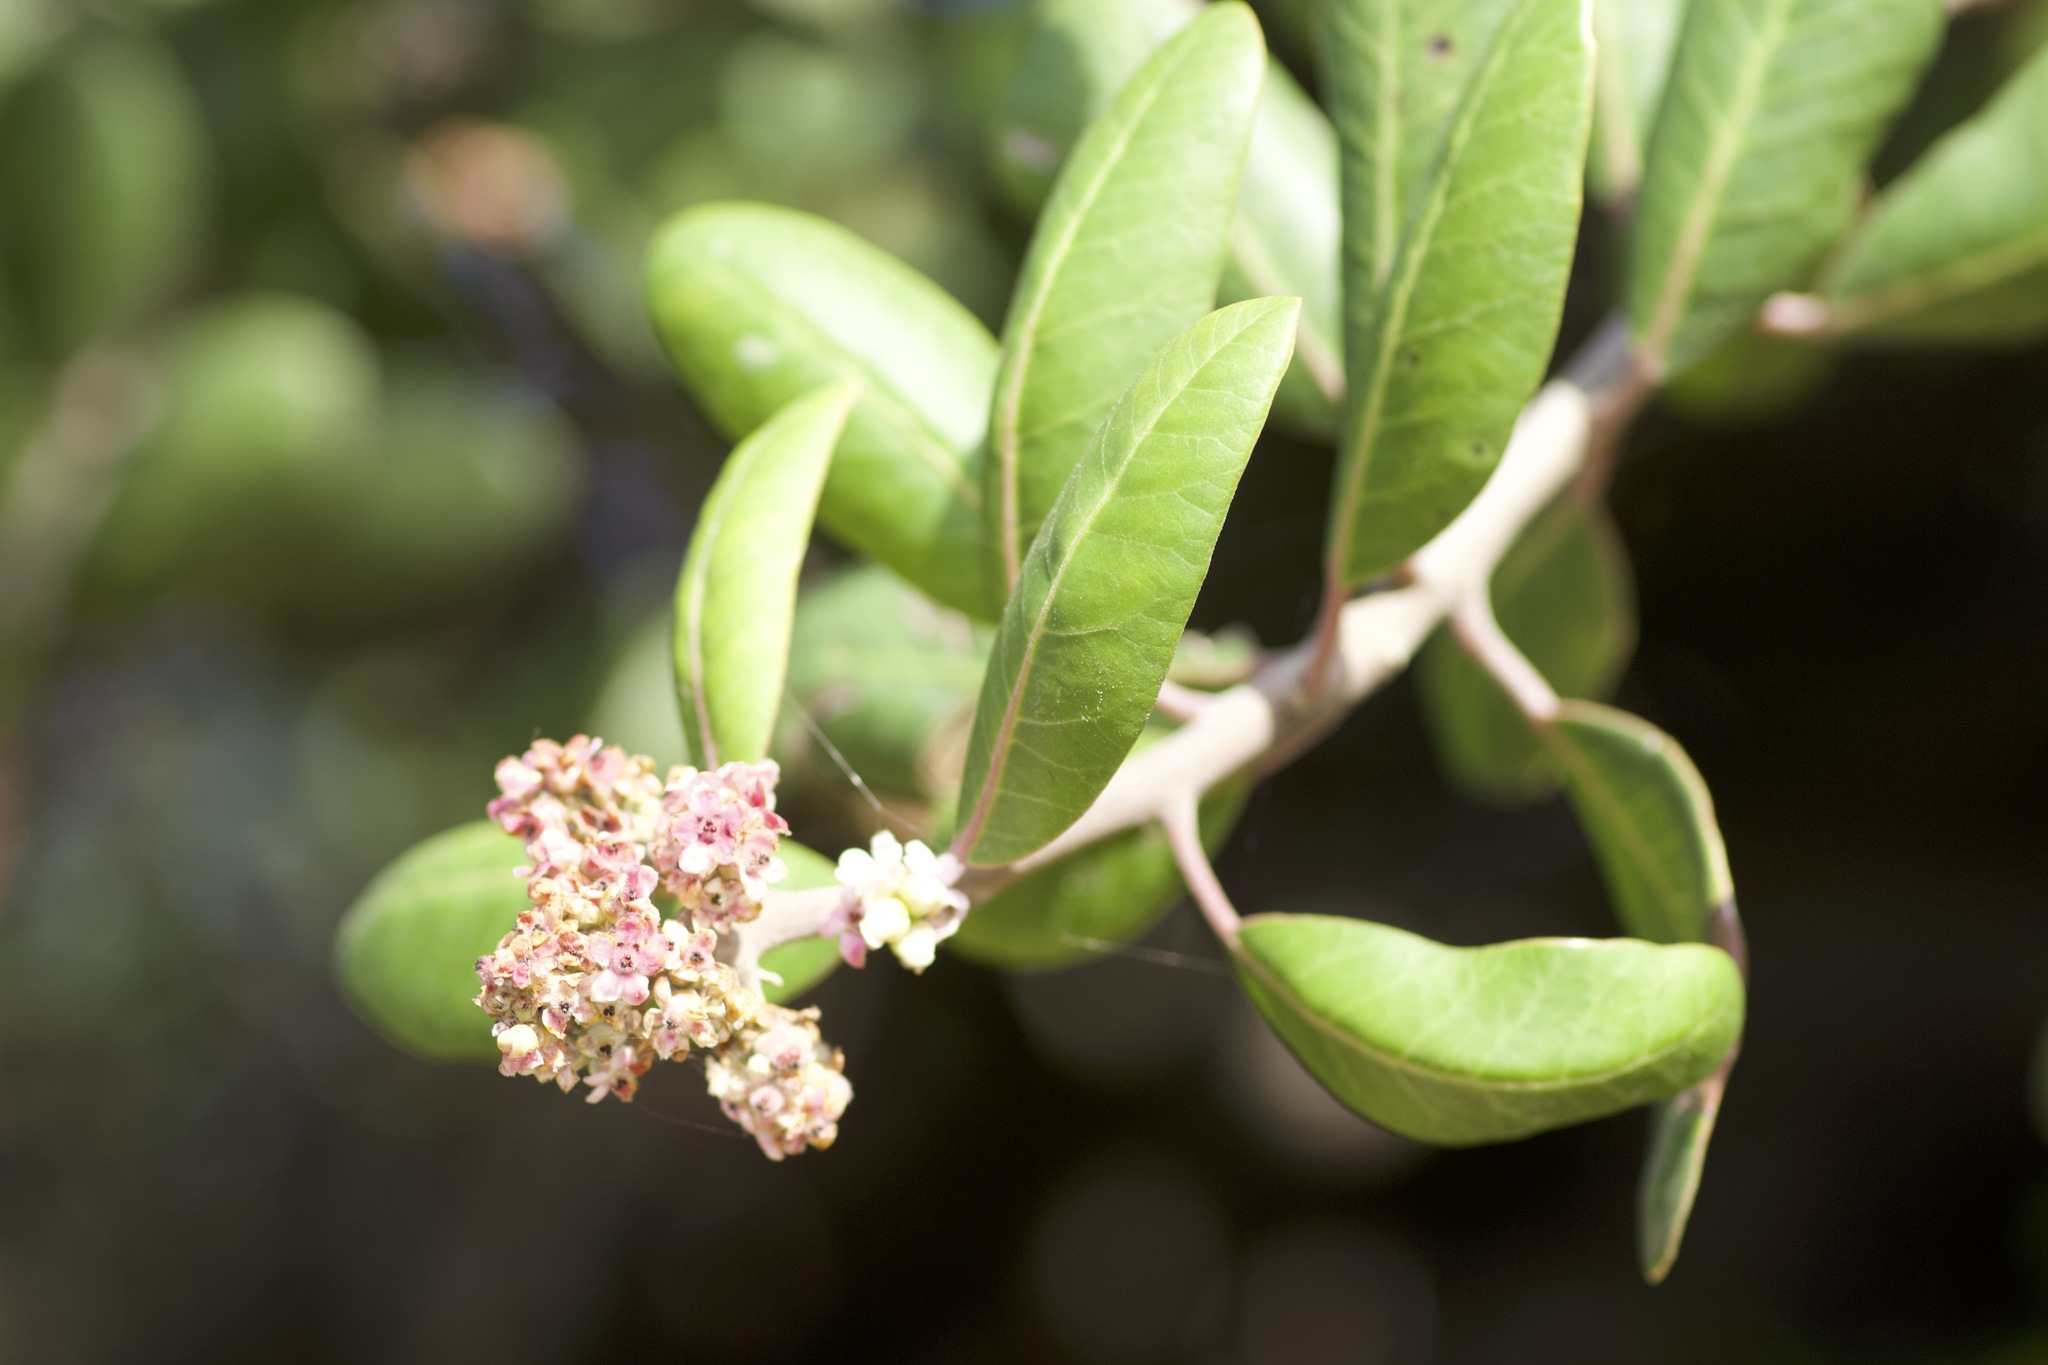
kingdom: Plantae
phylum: Tracheophyta
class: Magnoliopsida
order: Sapindales
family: Anacardiaceae
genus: Rhus
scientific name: Rhus integrifolia
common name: Lemonade sumac
